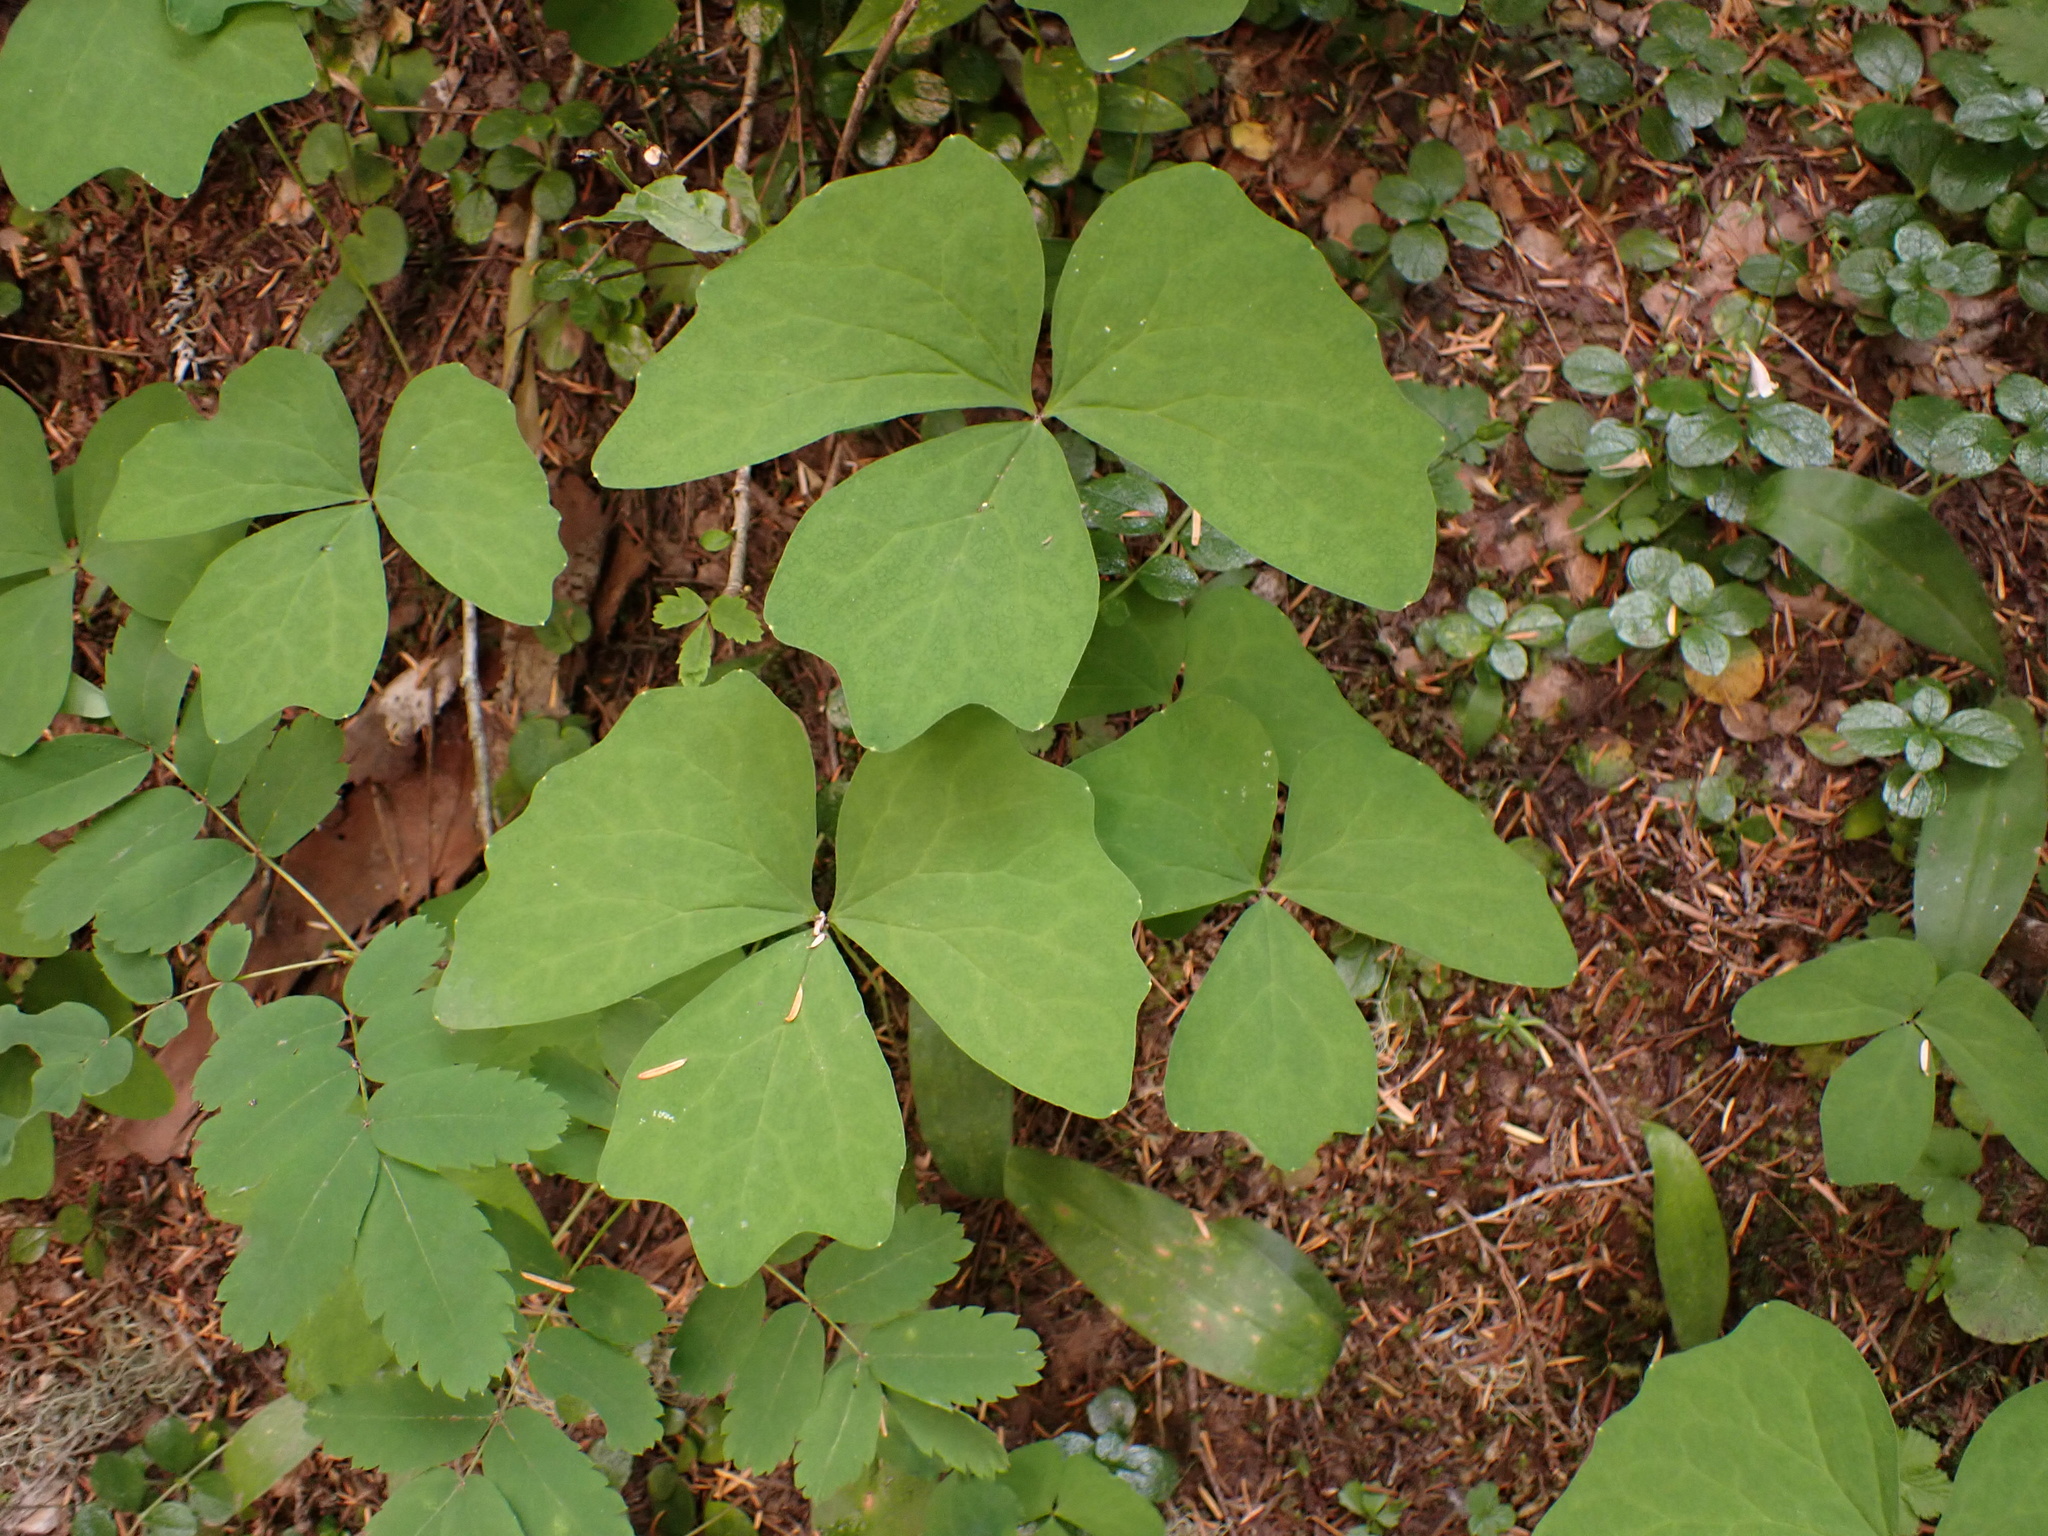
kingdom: Plantae
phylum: Tracheophyta
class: Magnoliopsida
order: Ranunculales
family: Berberidaceae
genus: Achlys
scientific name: Achlys triphylla
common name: Vanilla-leaf
